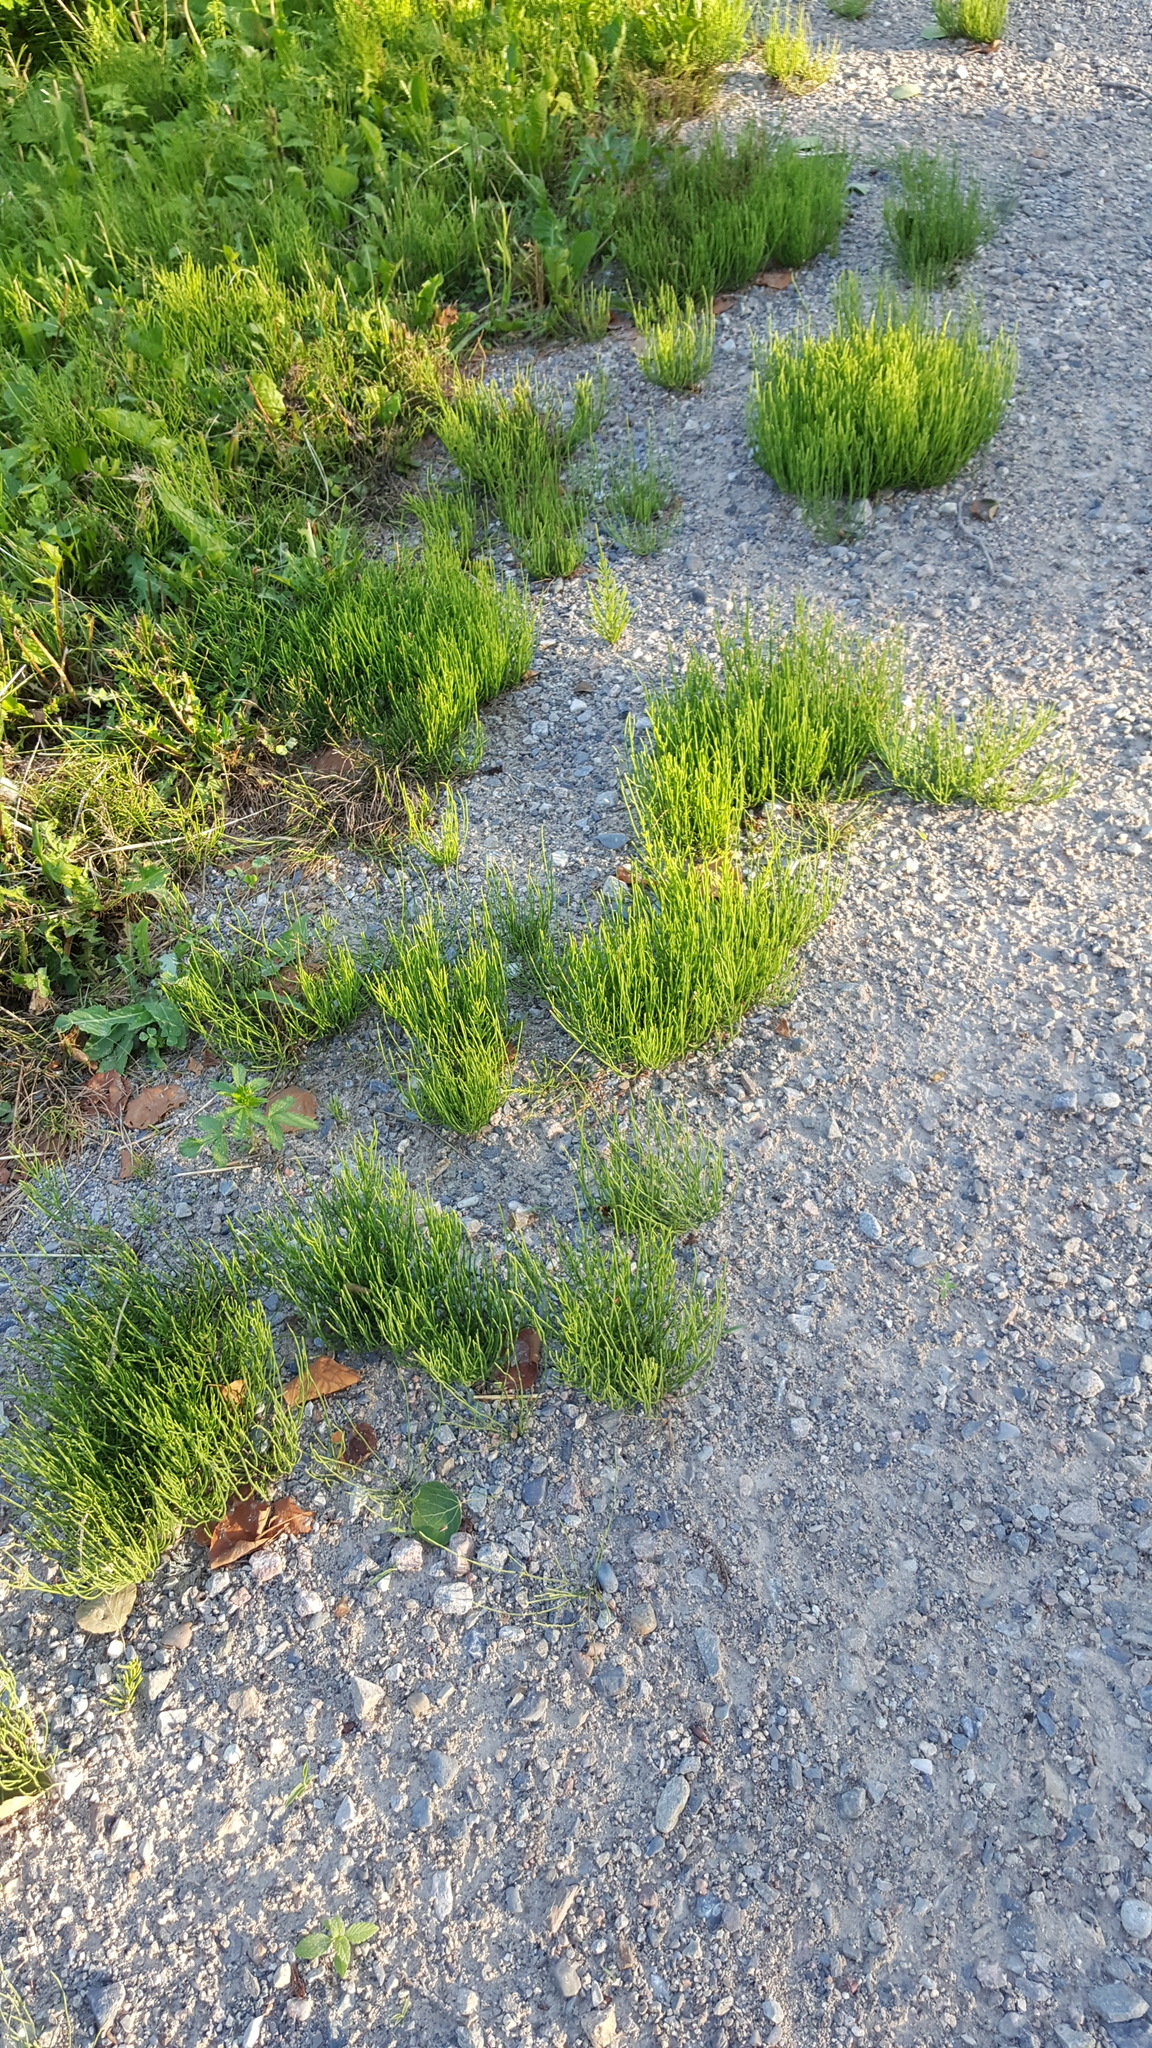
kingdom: Plantae
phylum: Tracheophyta
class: Polypodiopsida
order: Equisetales
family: Equisetaceae
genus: Equisetum
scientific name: Equisetum arvense
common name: Field horsetail
